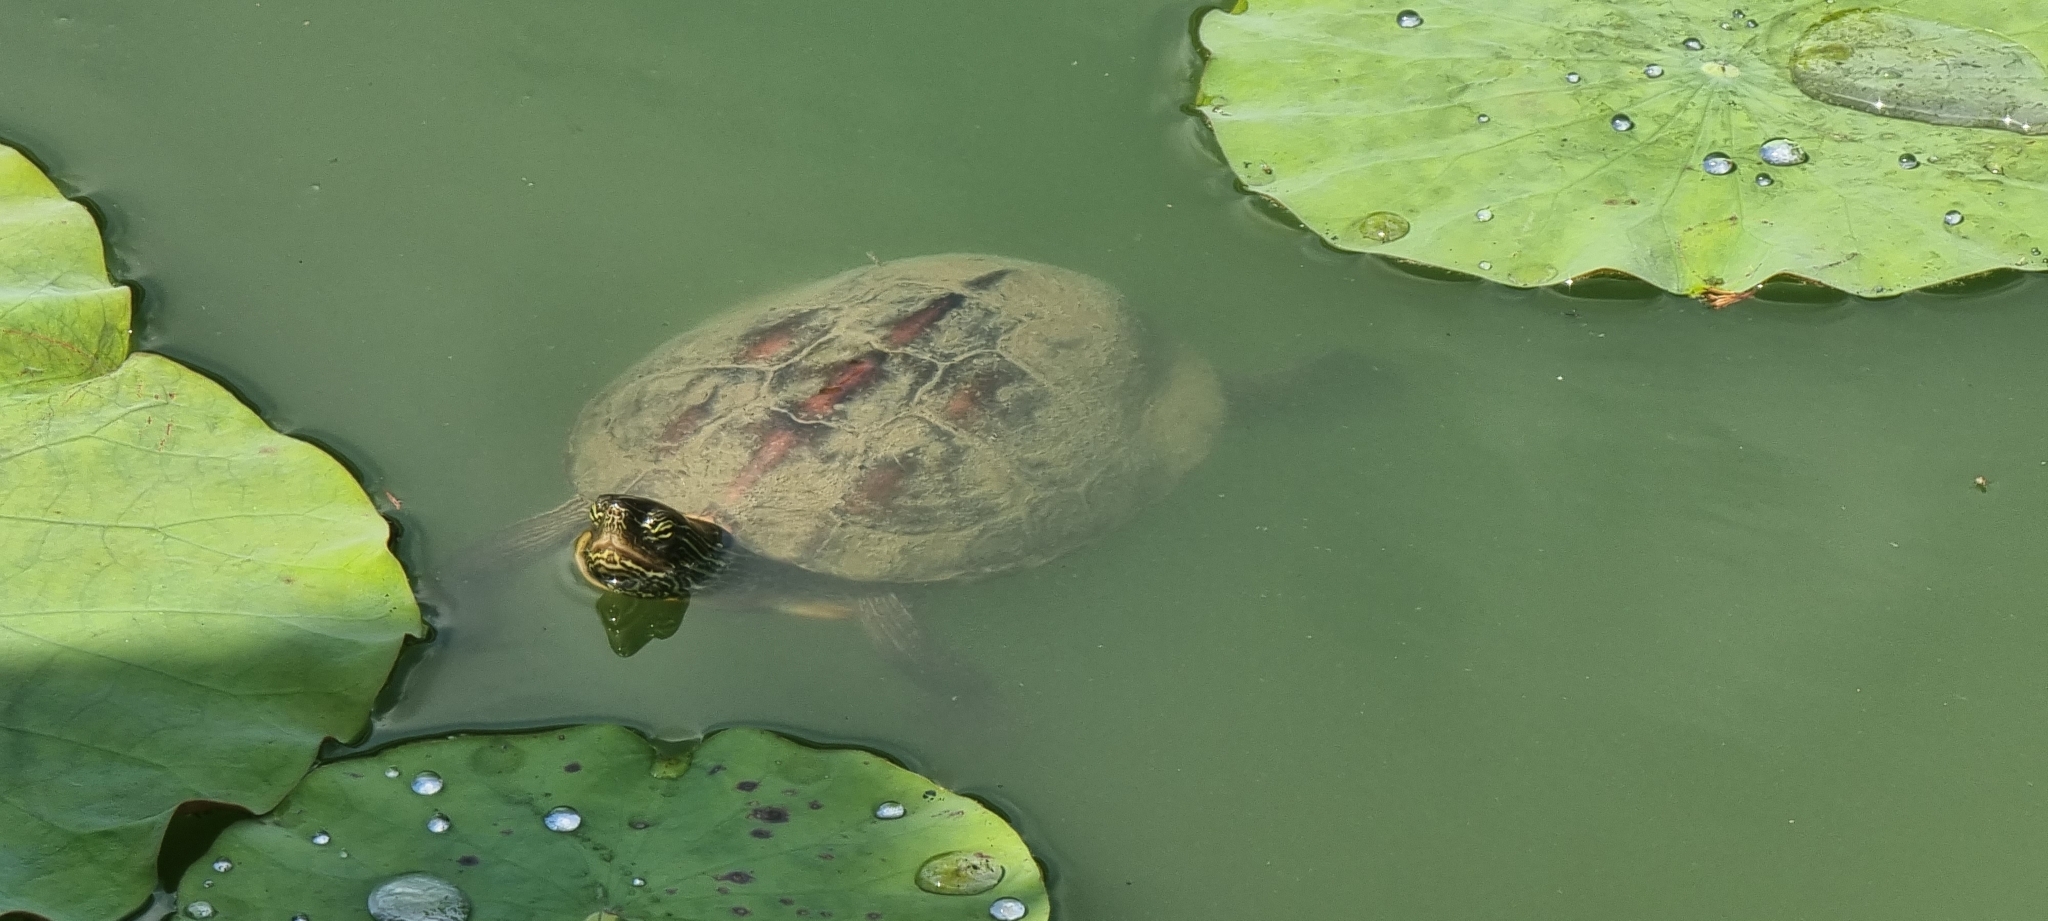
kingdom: Animalia
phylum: Chordata
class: Testudines
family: Geoemydidae
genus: Mauremys
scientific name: Mauremys sinensis
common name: Chinese stripe-necked turtle
